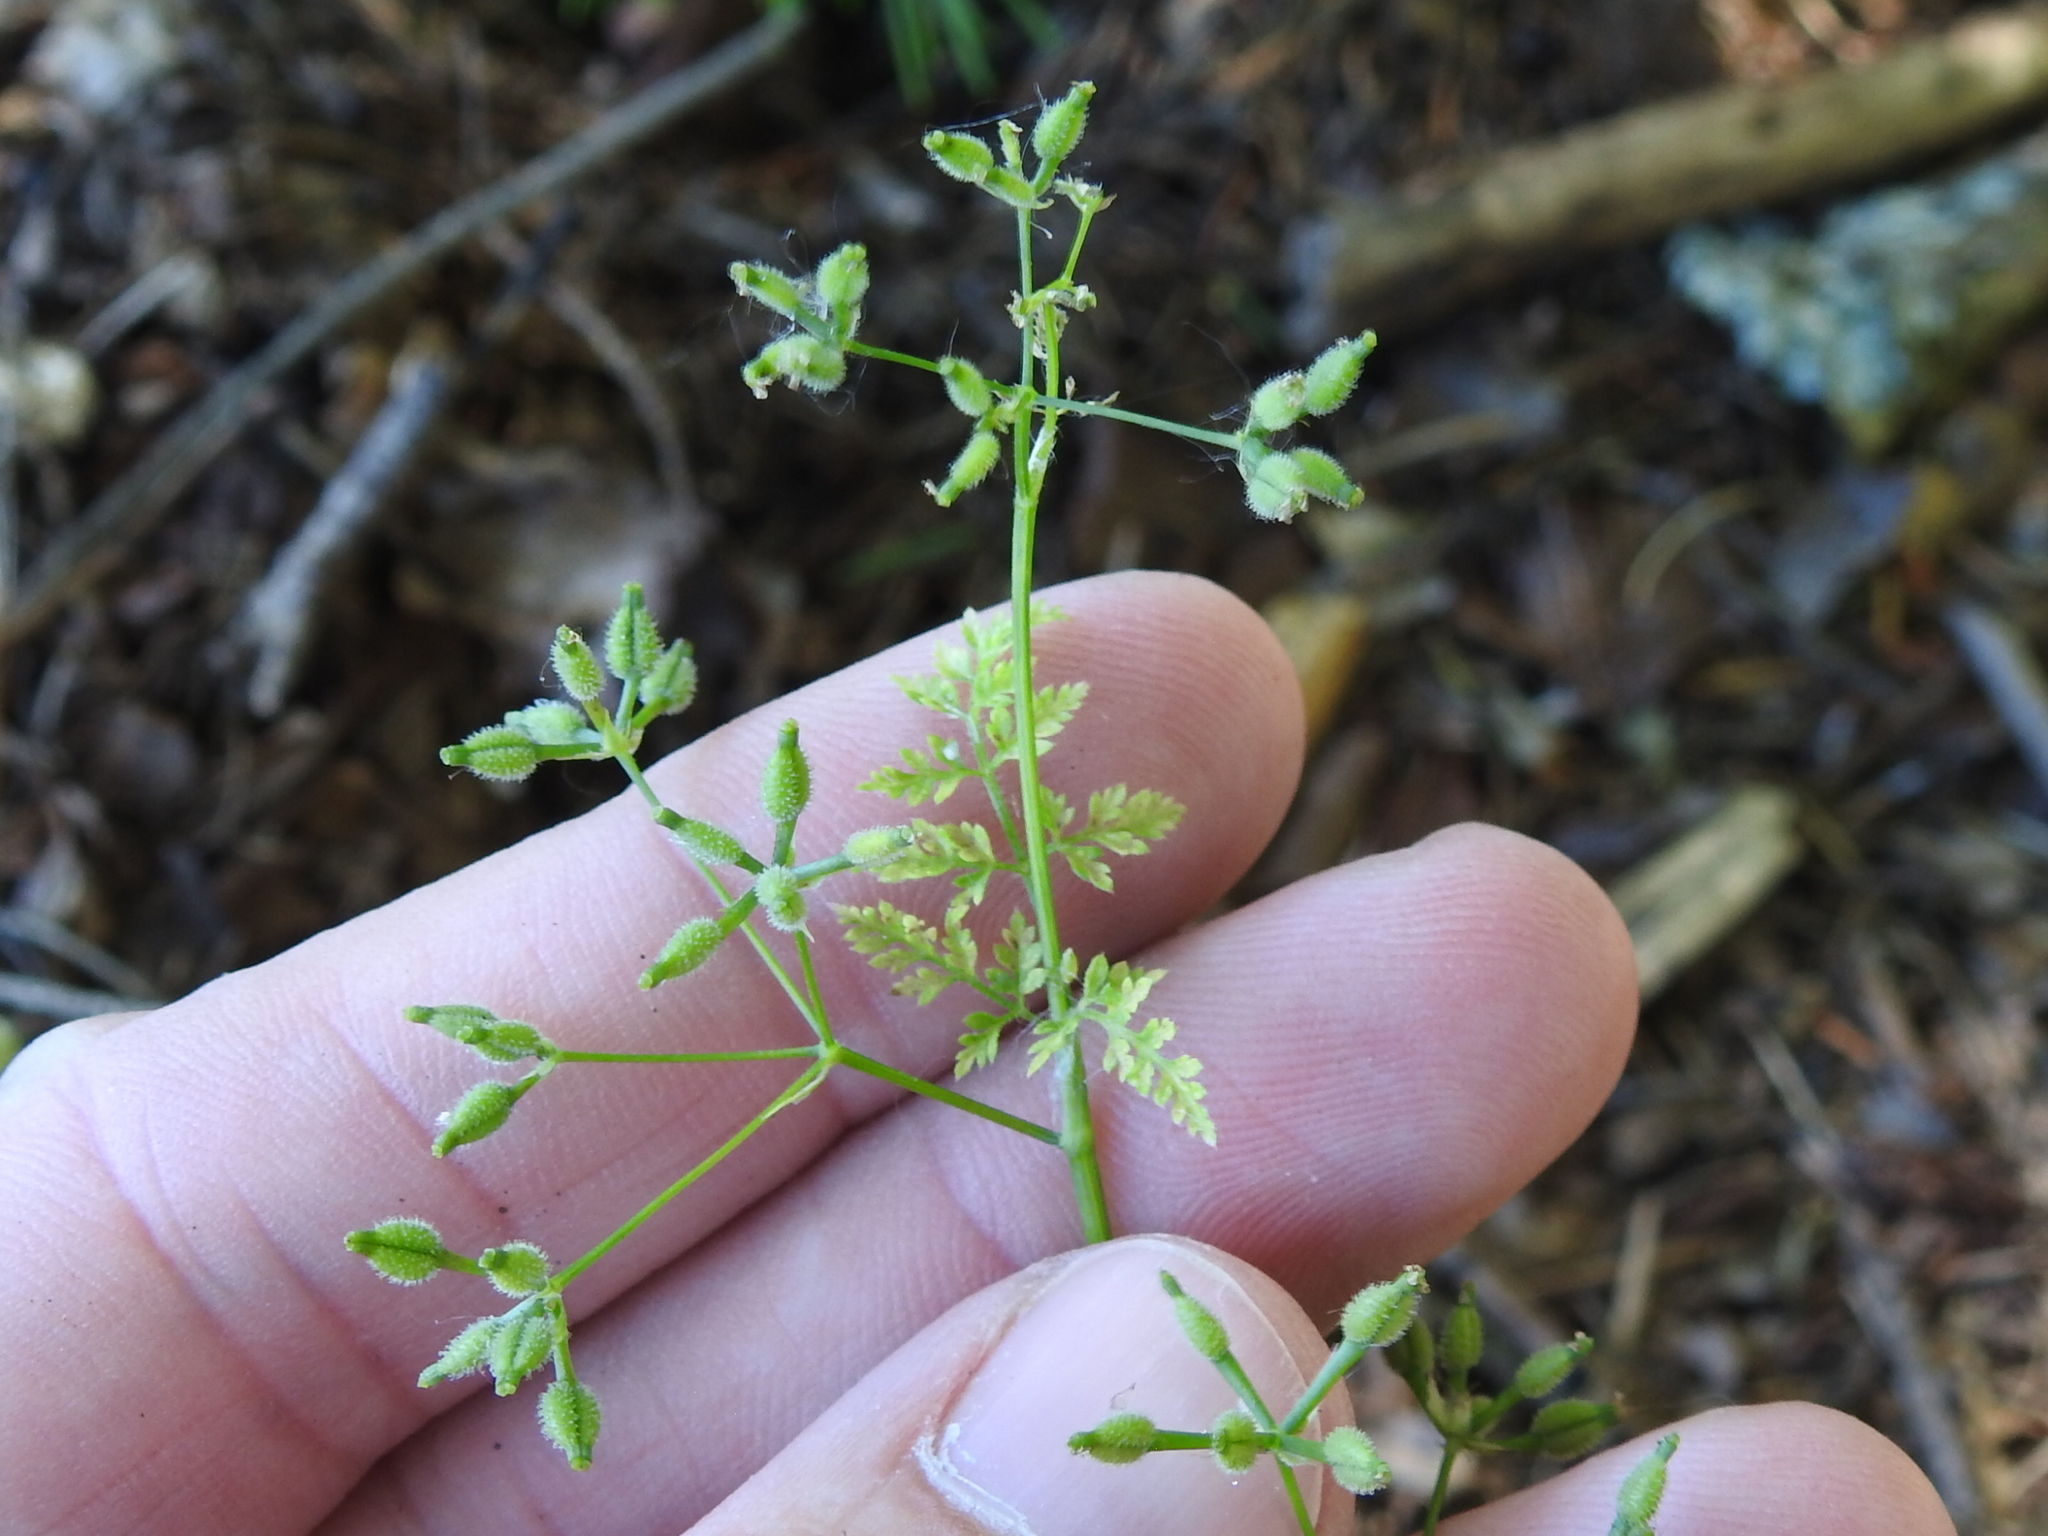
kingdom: Plantae
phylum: Tracheophyta
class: Magnoliopsida
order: Apiales
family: Apiaceae
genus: Anthriscus
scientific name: Anthriscus caucalis
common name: Bur chervil
